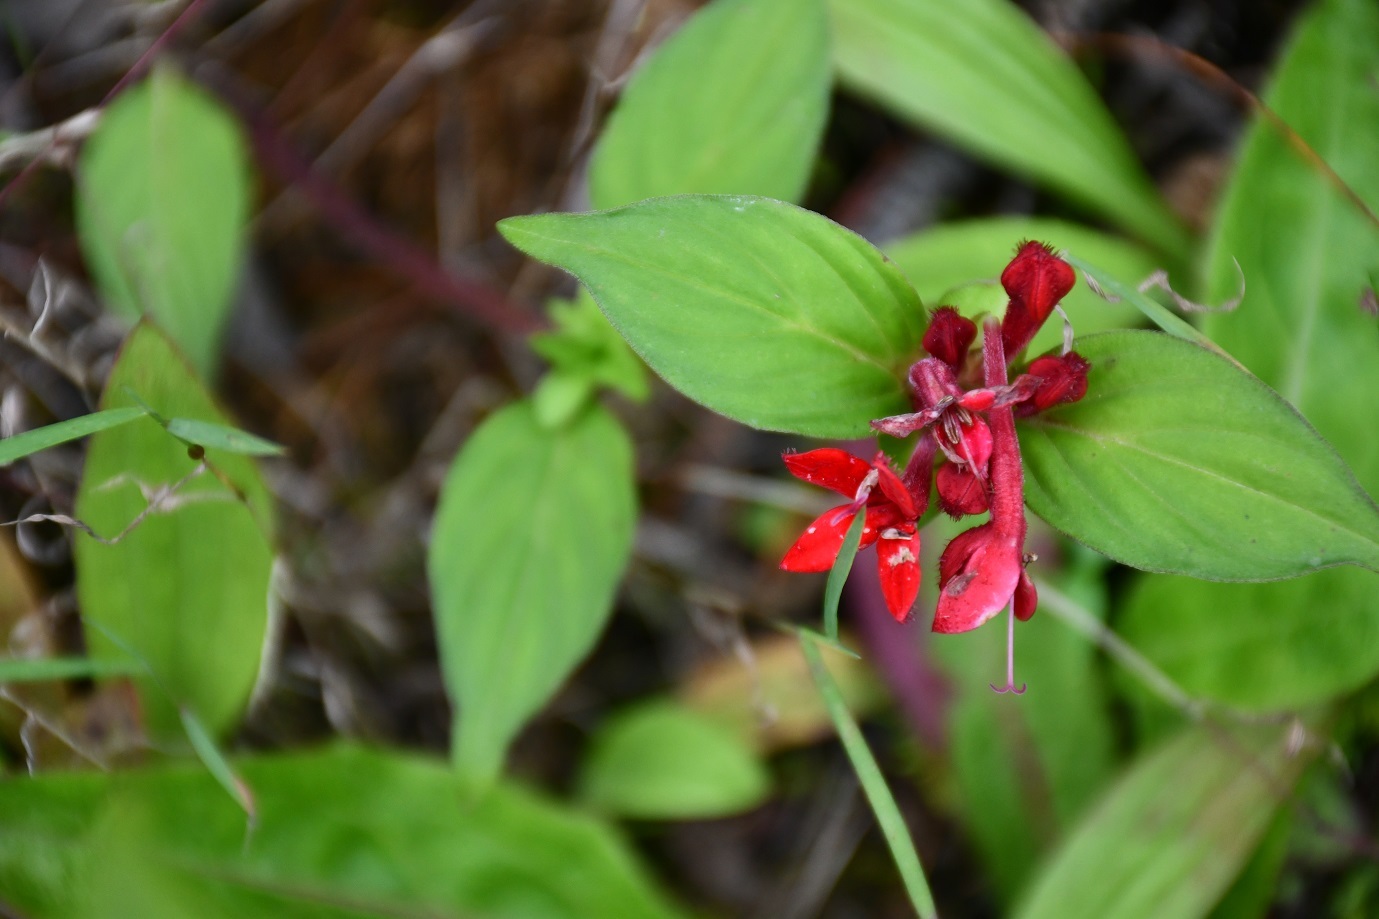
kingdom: Plantae
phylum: Tracheophyta
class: Magnoliopsida
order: Gentianales
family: Rubiaceae
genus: Crusea
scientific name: Crusea coccinea
